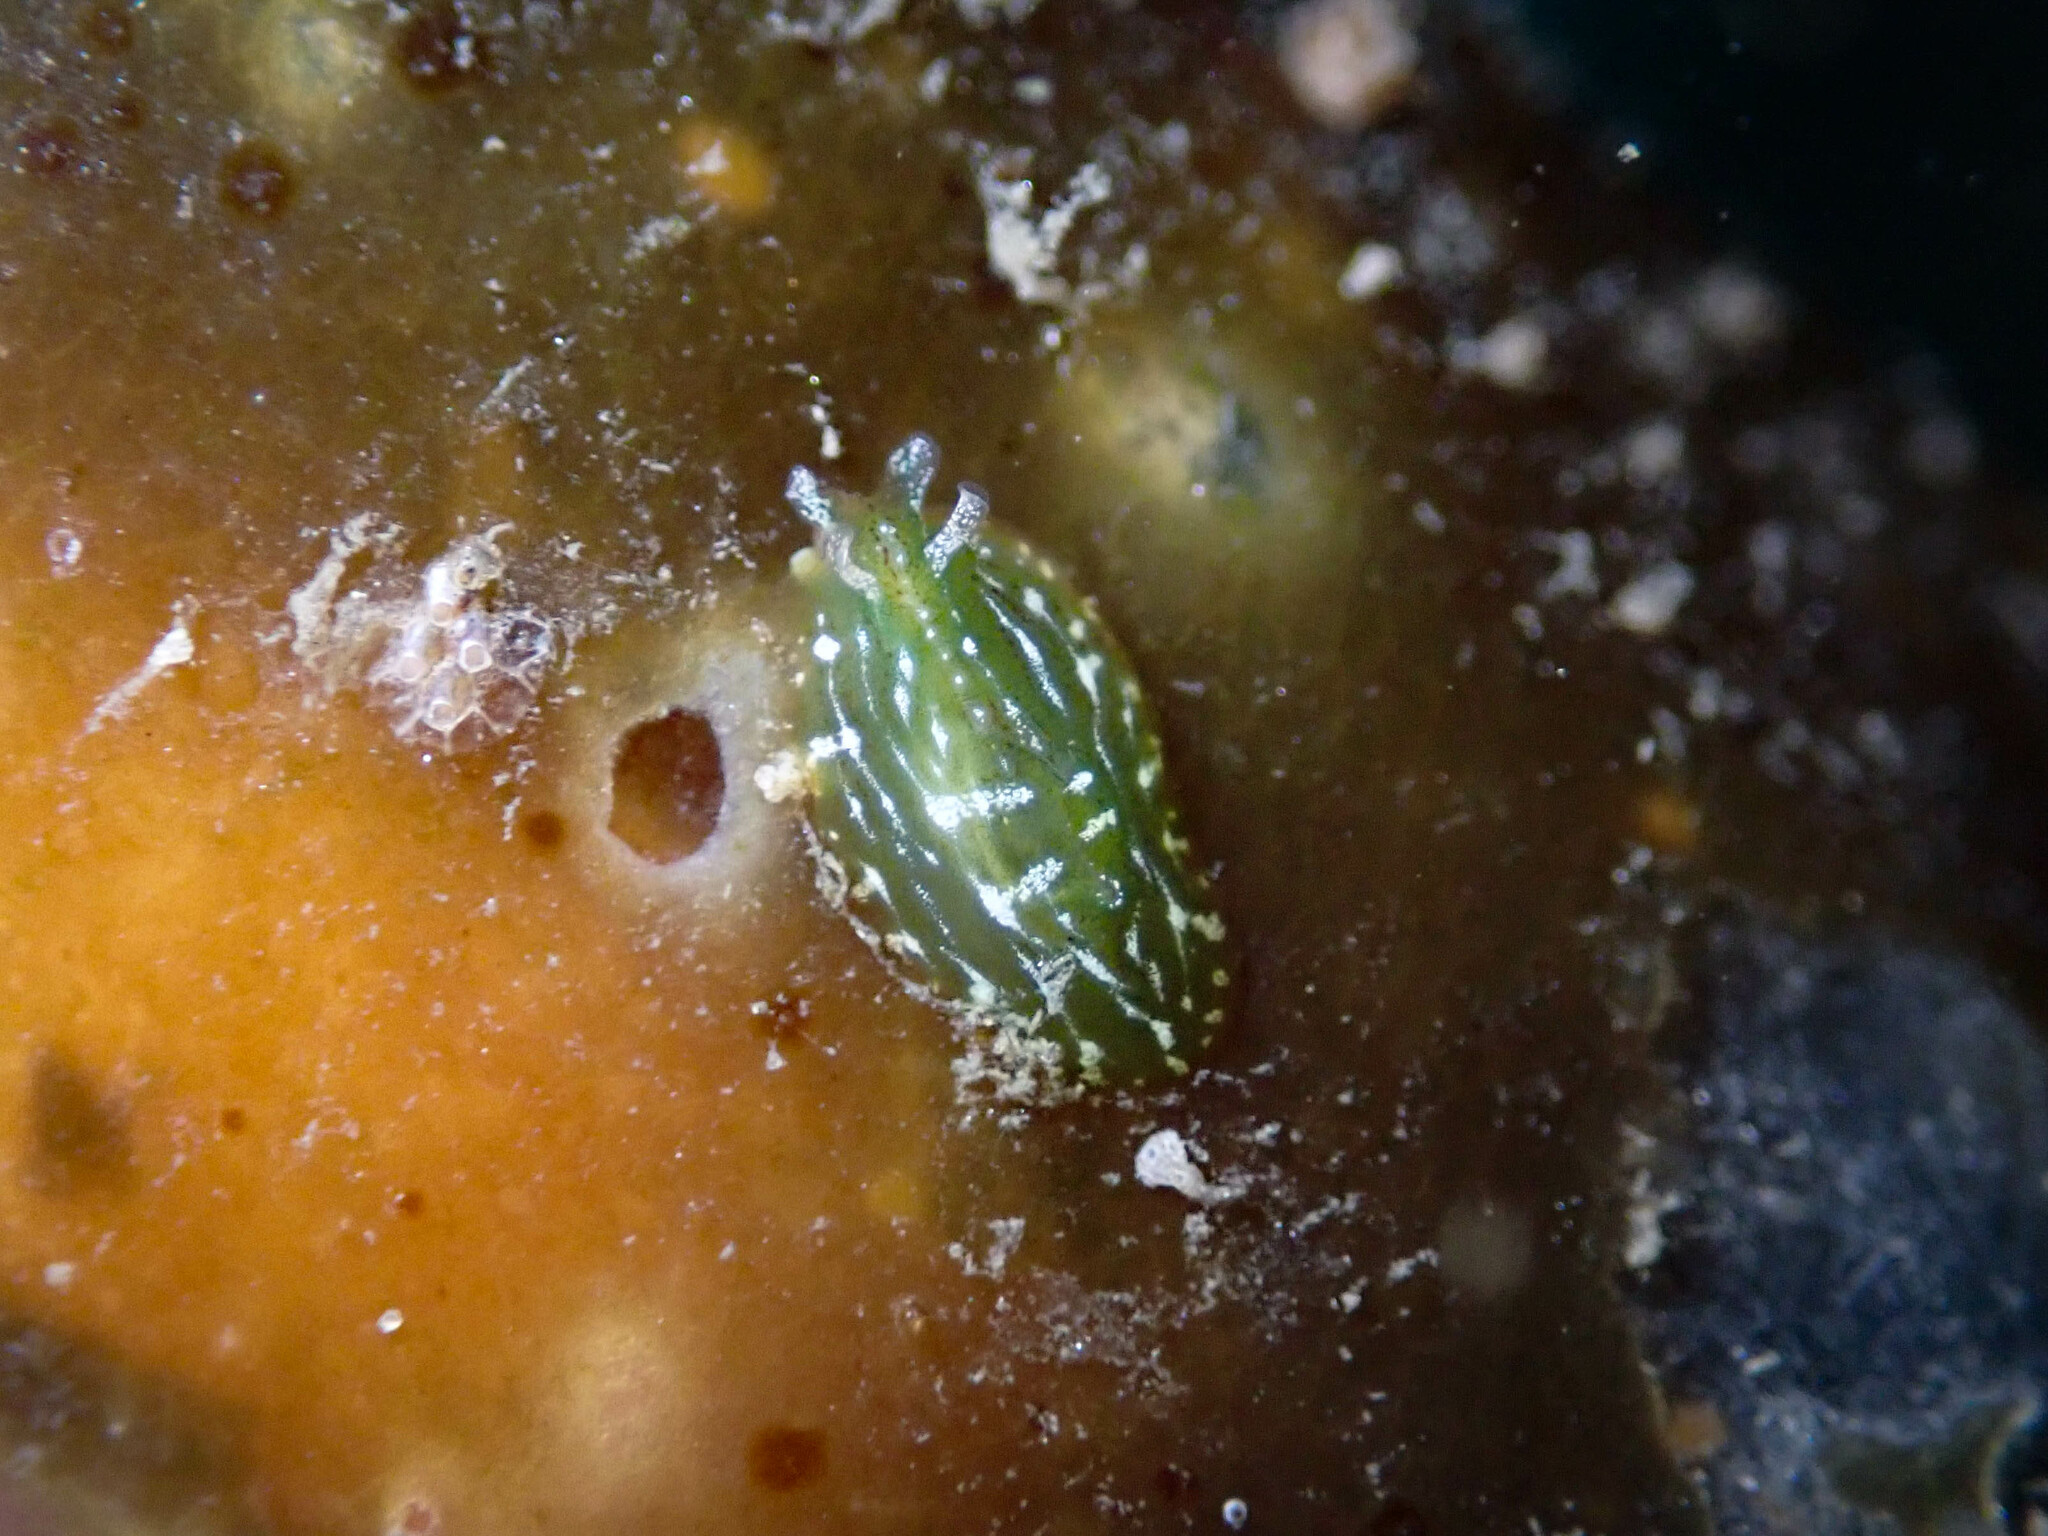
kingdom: Animalia
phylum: Mollusca
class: Gastropoda
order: Aplysiida
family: Aplysiidae
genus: Phyllaplysia
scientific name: Phyllaplysia taylori
